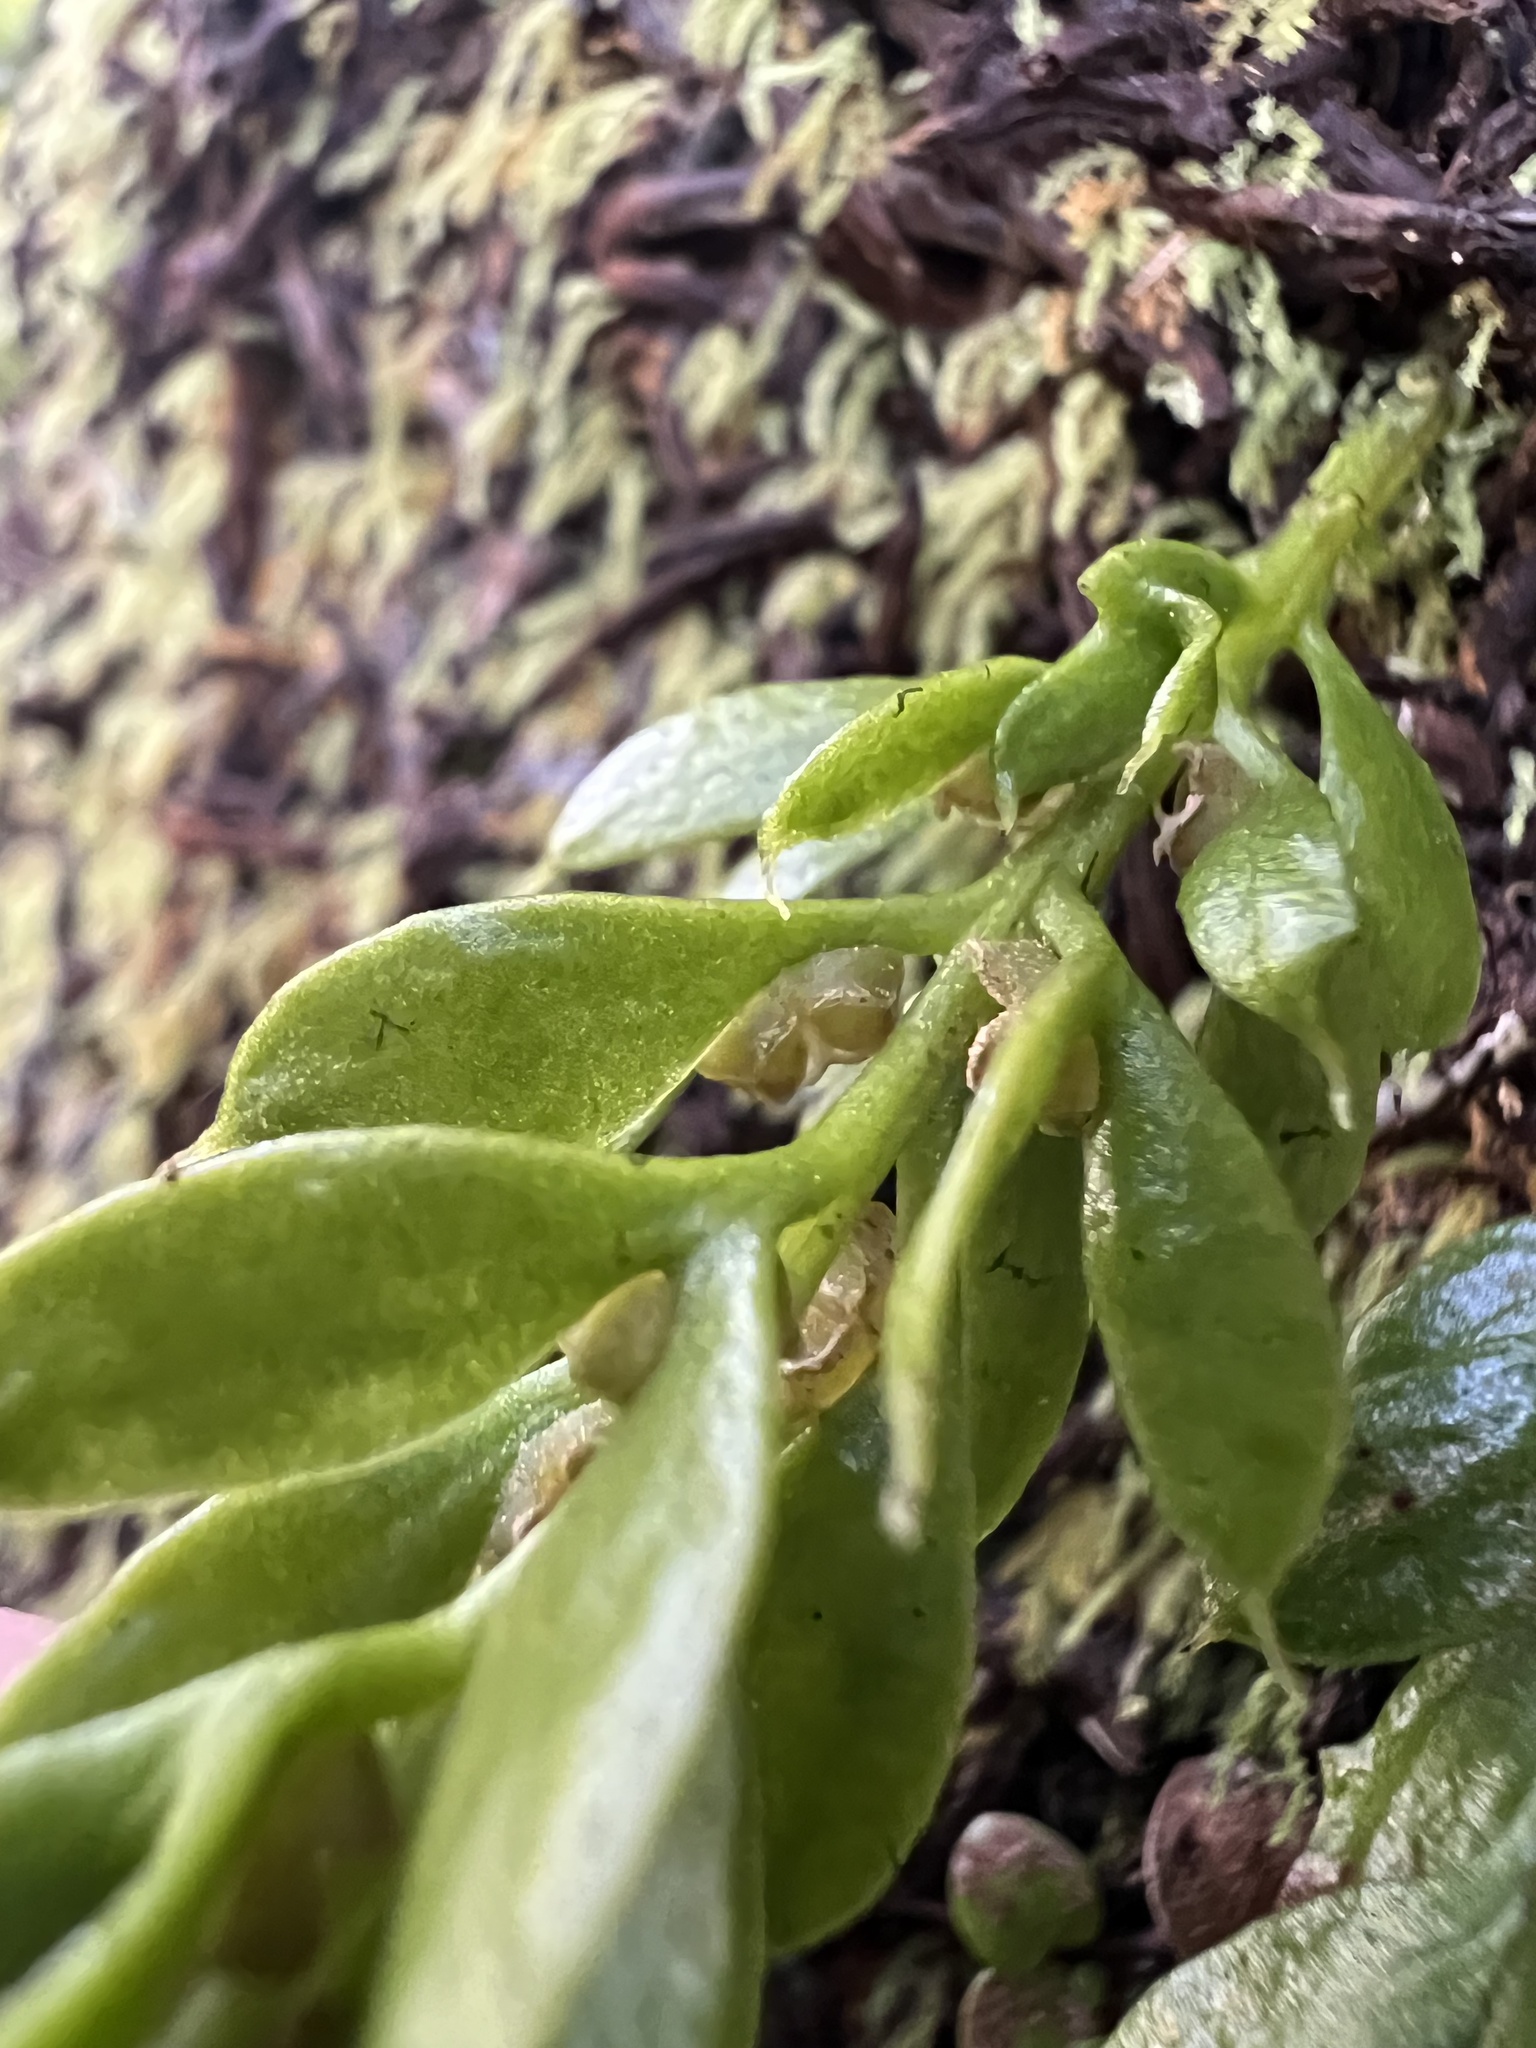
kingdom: Plantae
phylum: Tracheophyta
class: Polypodiopsida
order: Psilotales
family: Psilotaceae
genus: Tmesipteris
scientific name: Tmesipteris lanceolata
